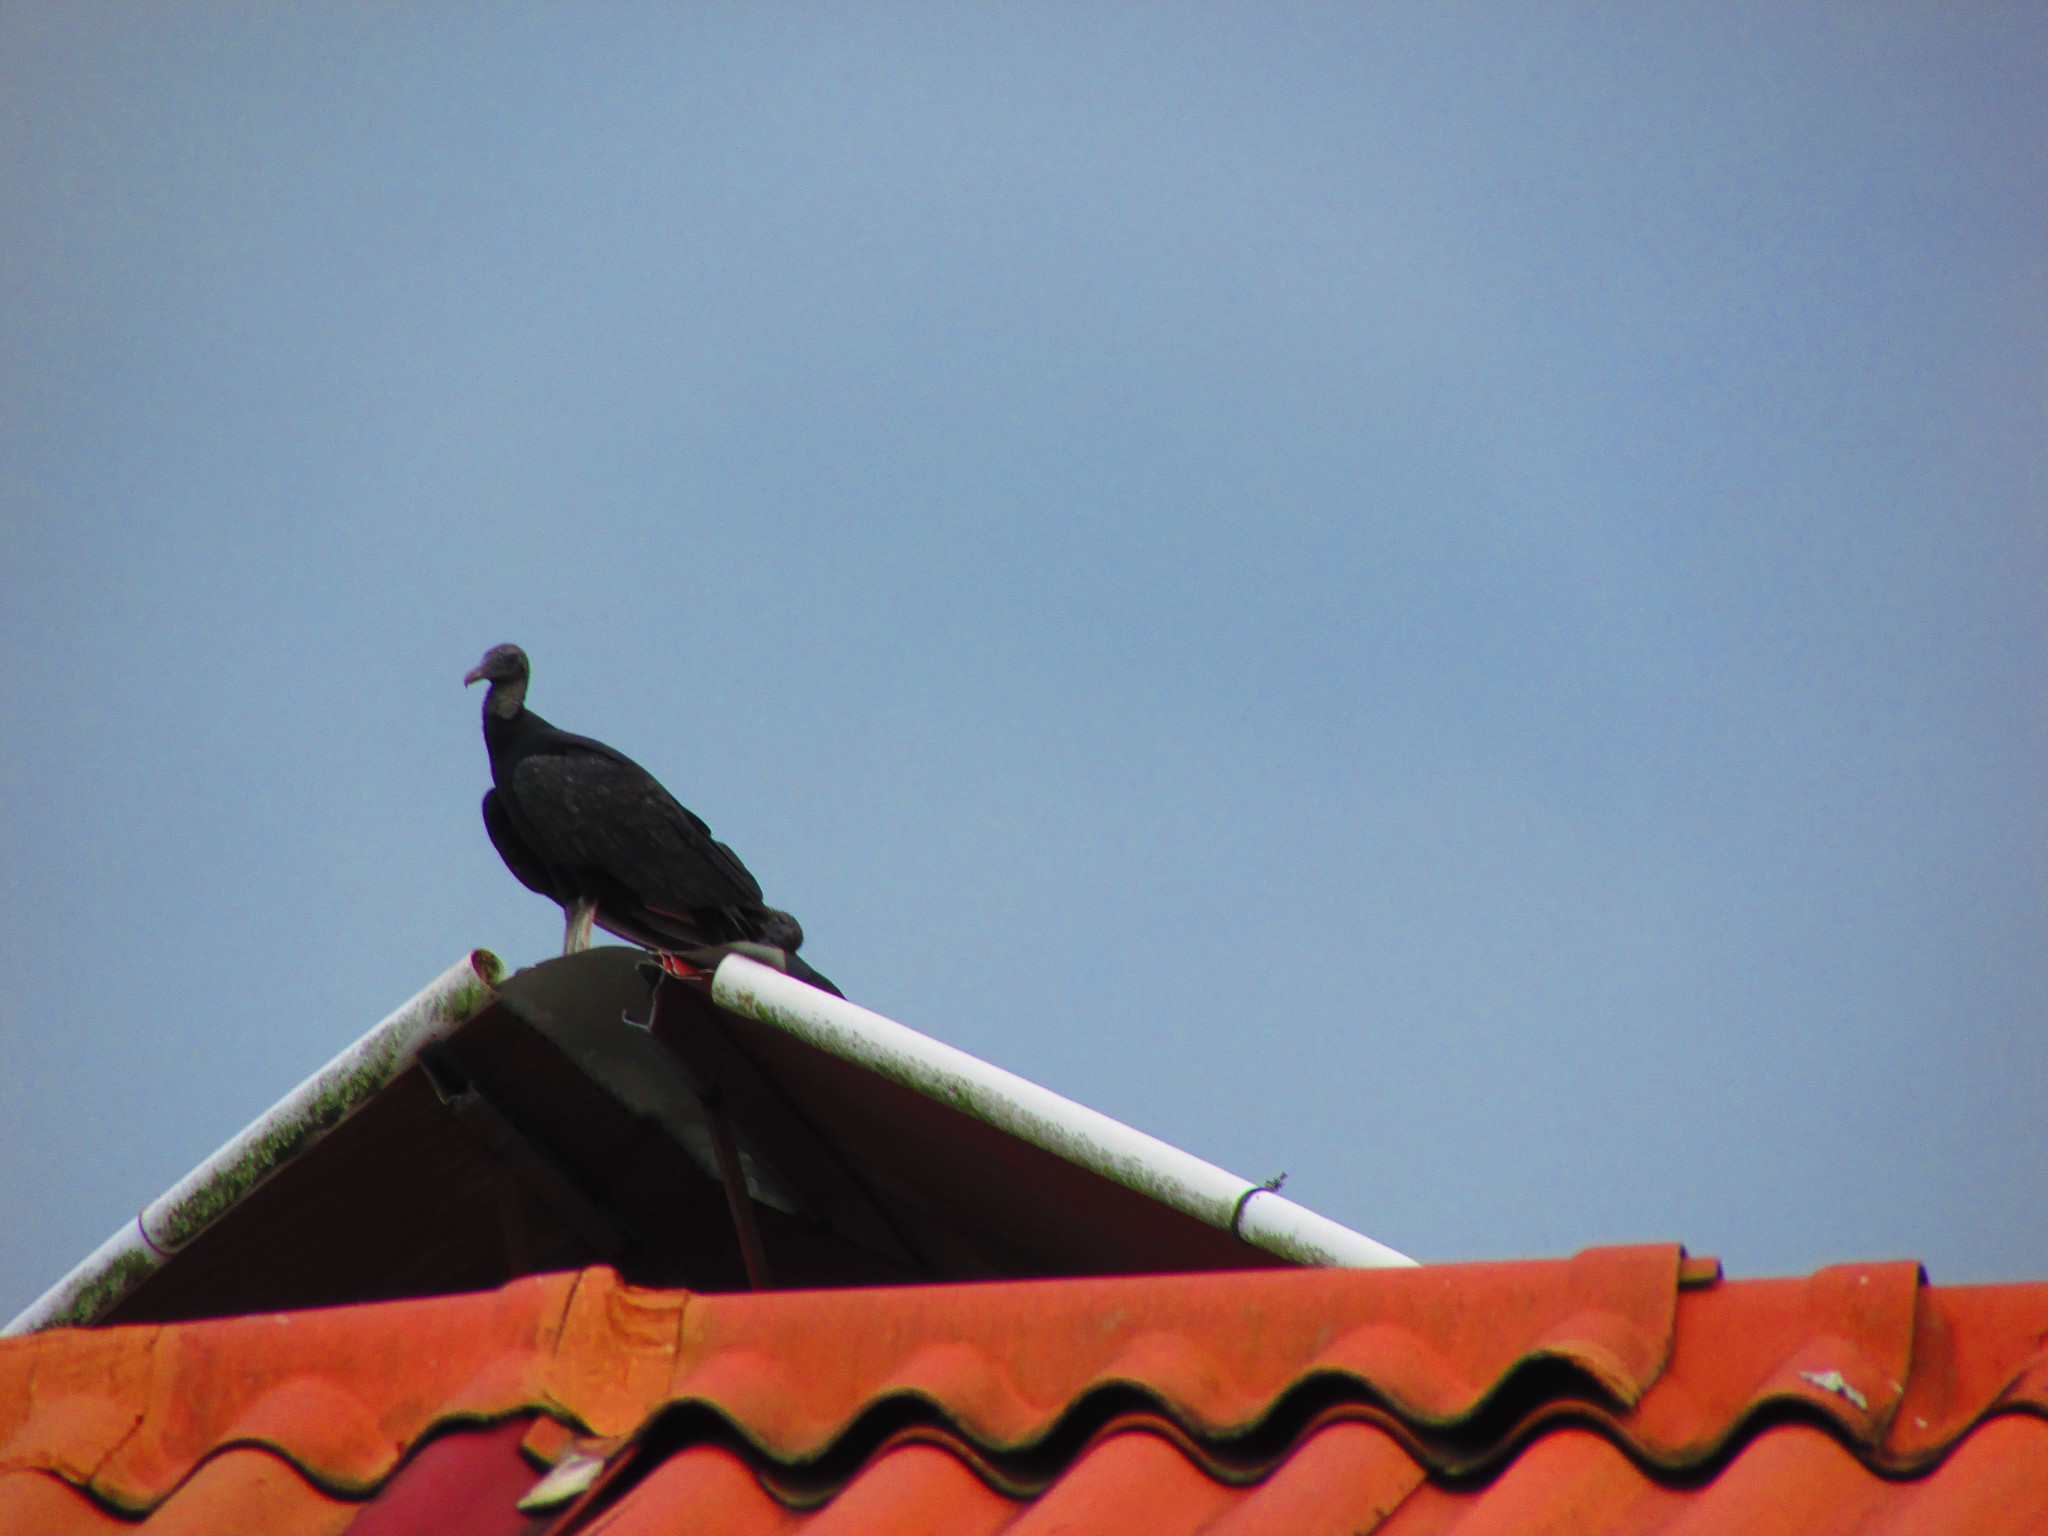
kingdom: Animalia
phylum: Chordata
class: Aves
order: Accipitriformes
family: Cathartidae
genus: Coragyps
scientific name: Coragyps atratus
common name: Black vulture
